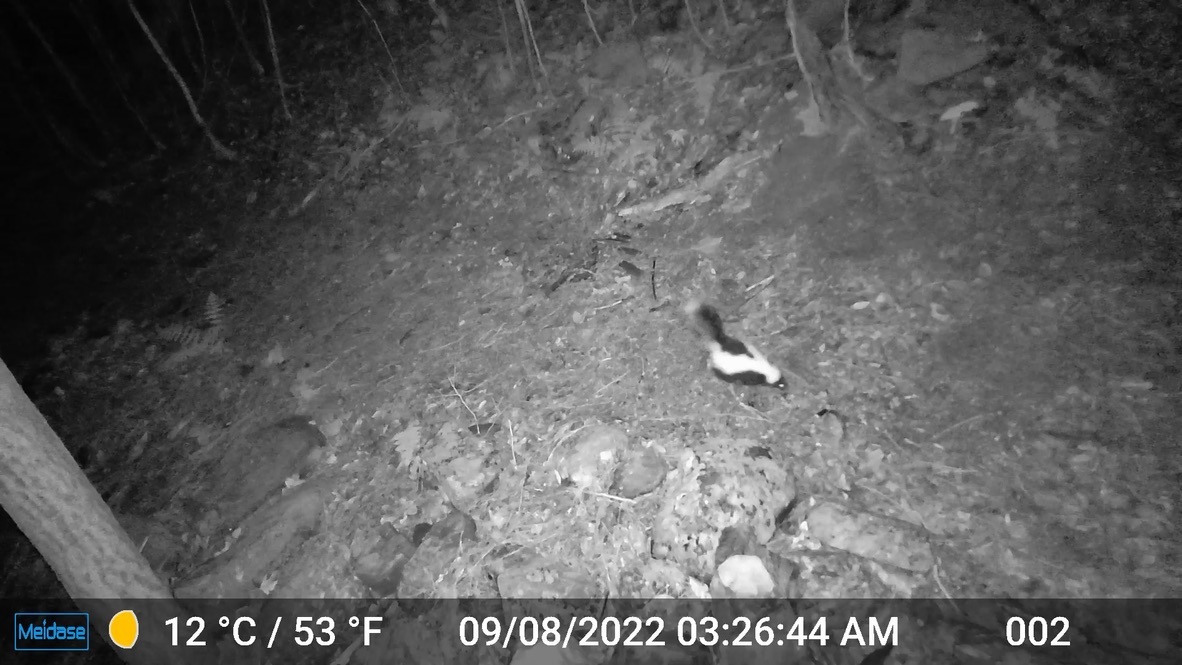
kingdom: Animalia
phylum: Chordata
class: Mammalia
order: Carnivora
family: Mephitidae
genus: Mephitis
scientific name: Mephitis mephitis
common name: Striped skunk
